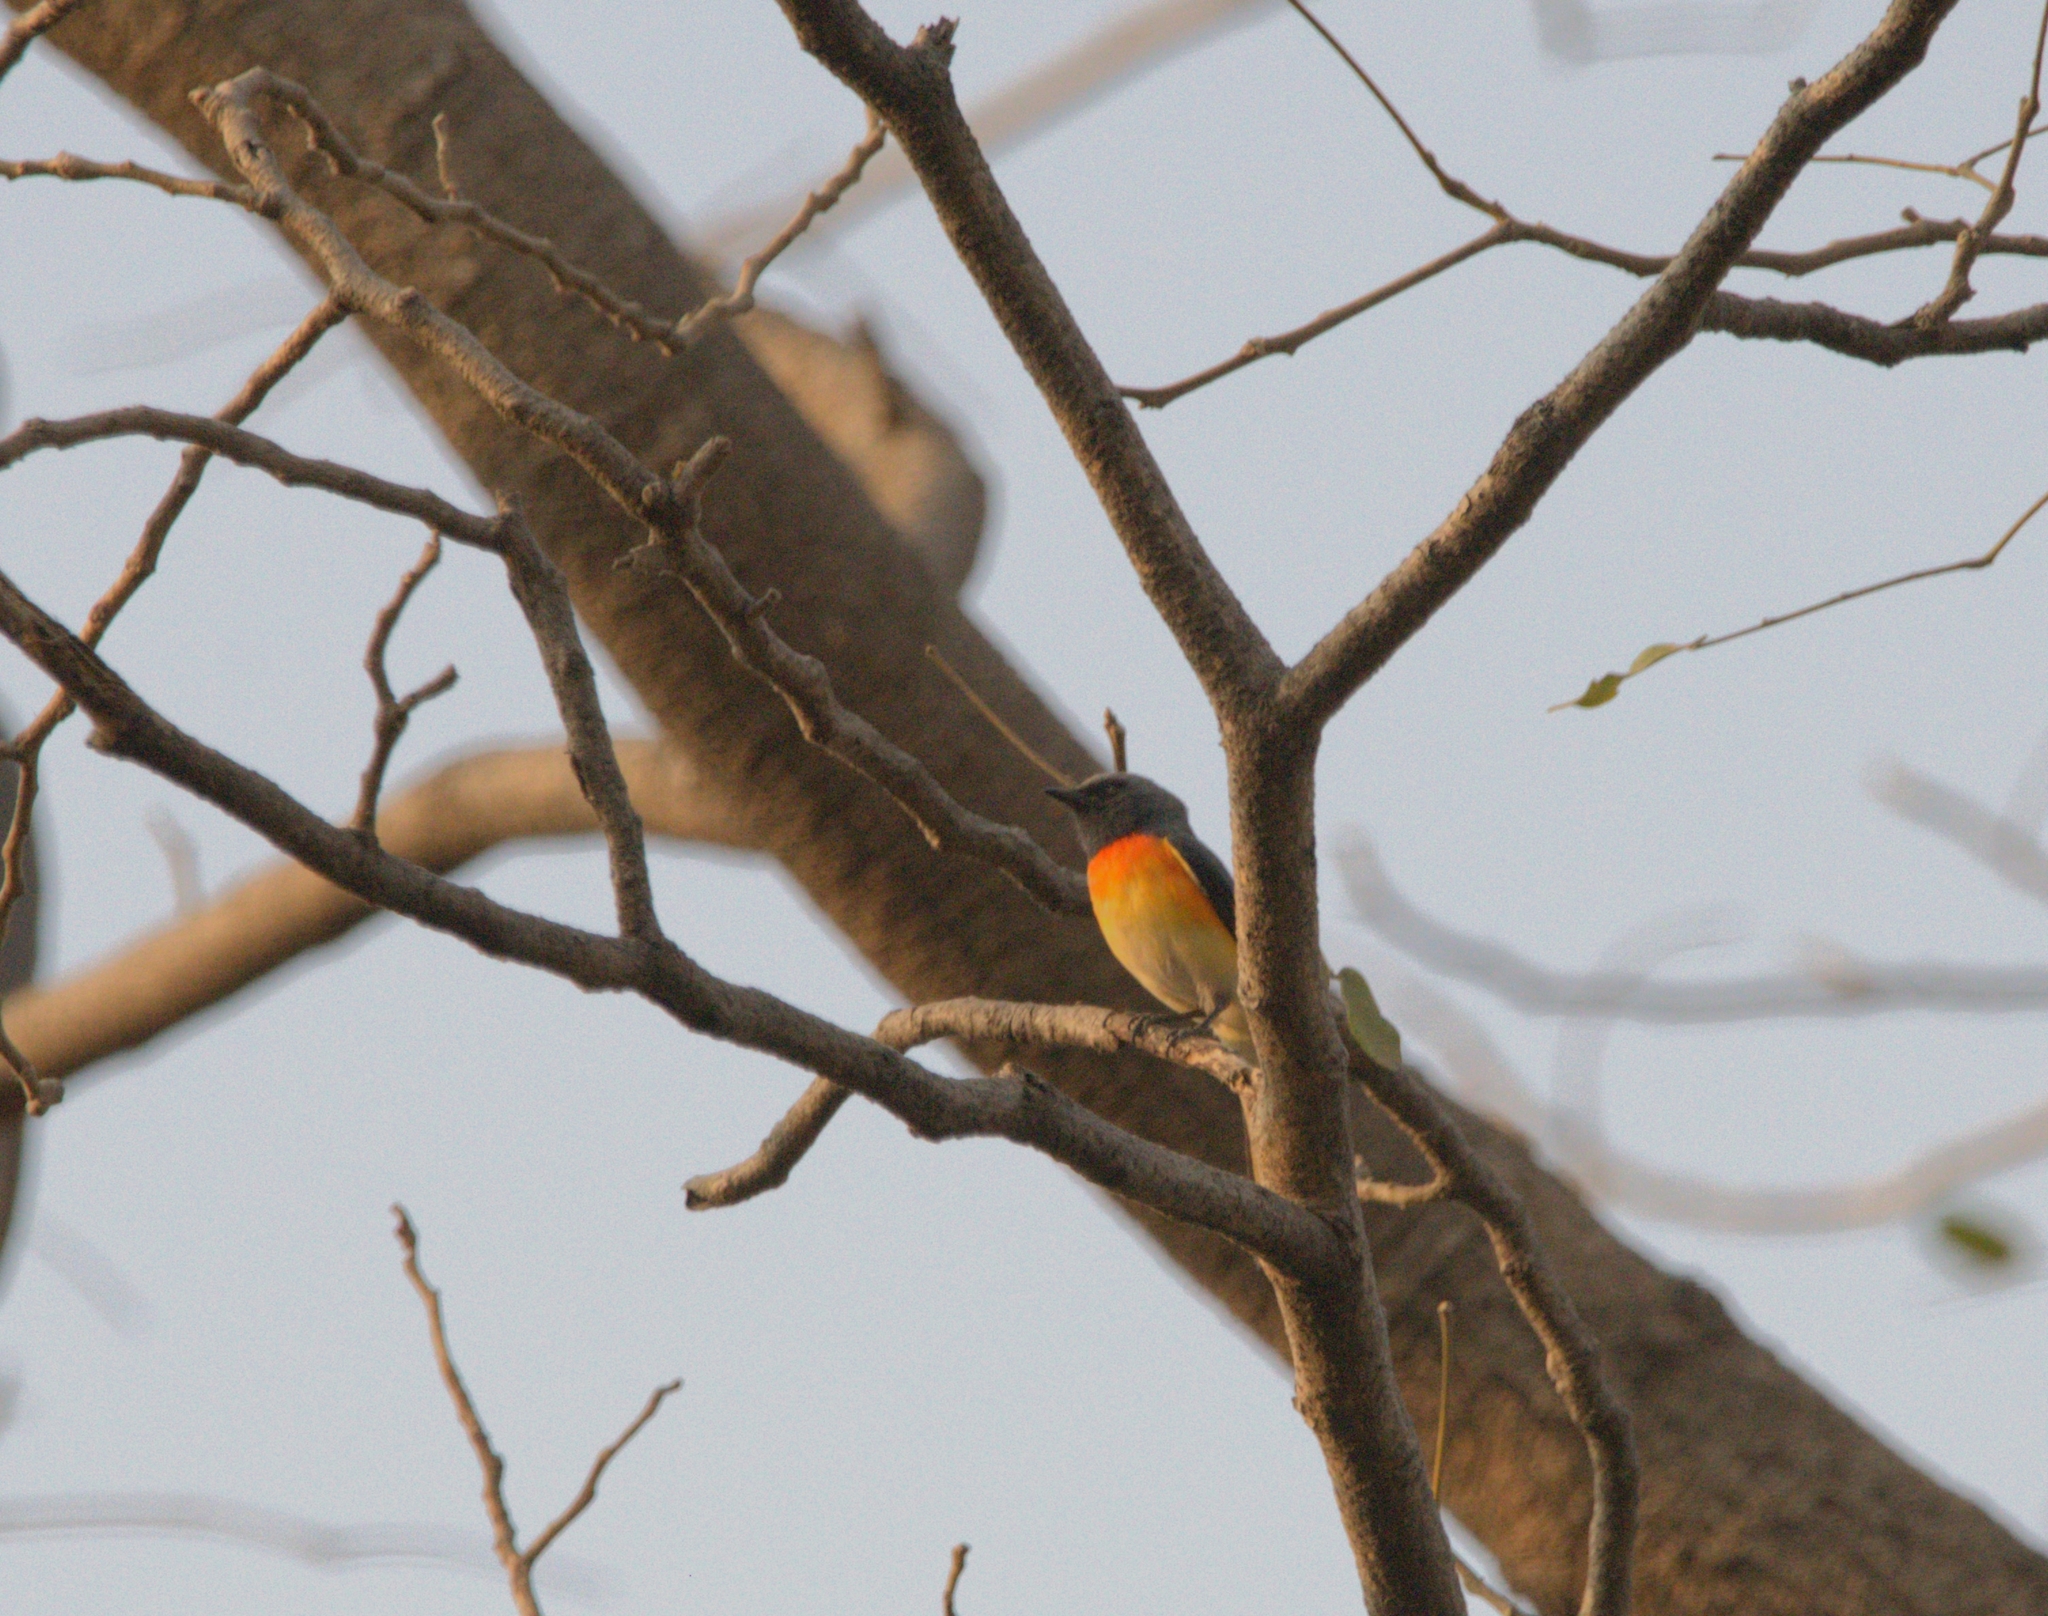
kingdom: Animalia
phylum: Chordata
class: Aves
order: Passeriformes
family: Campephagidae
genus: Pericrocotus
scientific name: Pericrocotus cinnamomeus
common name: Small minivet
